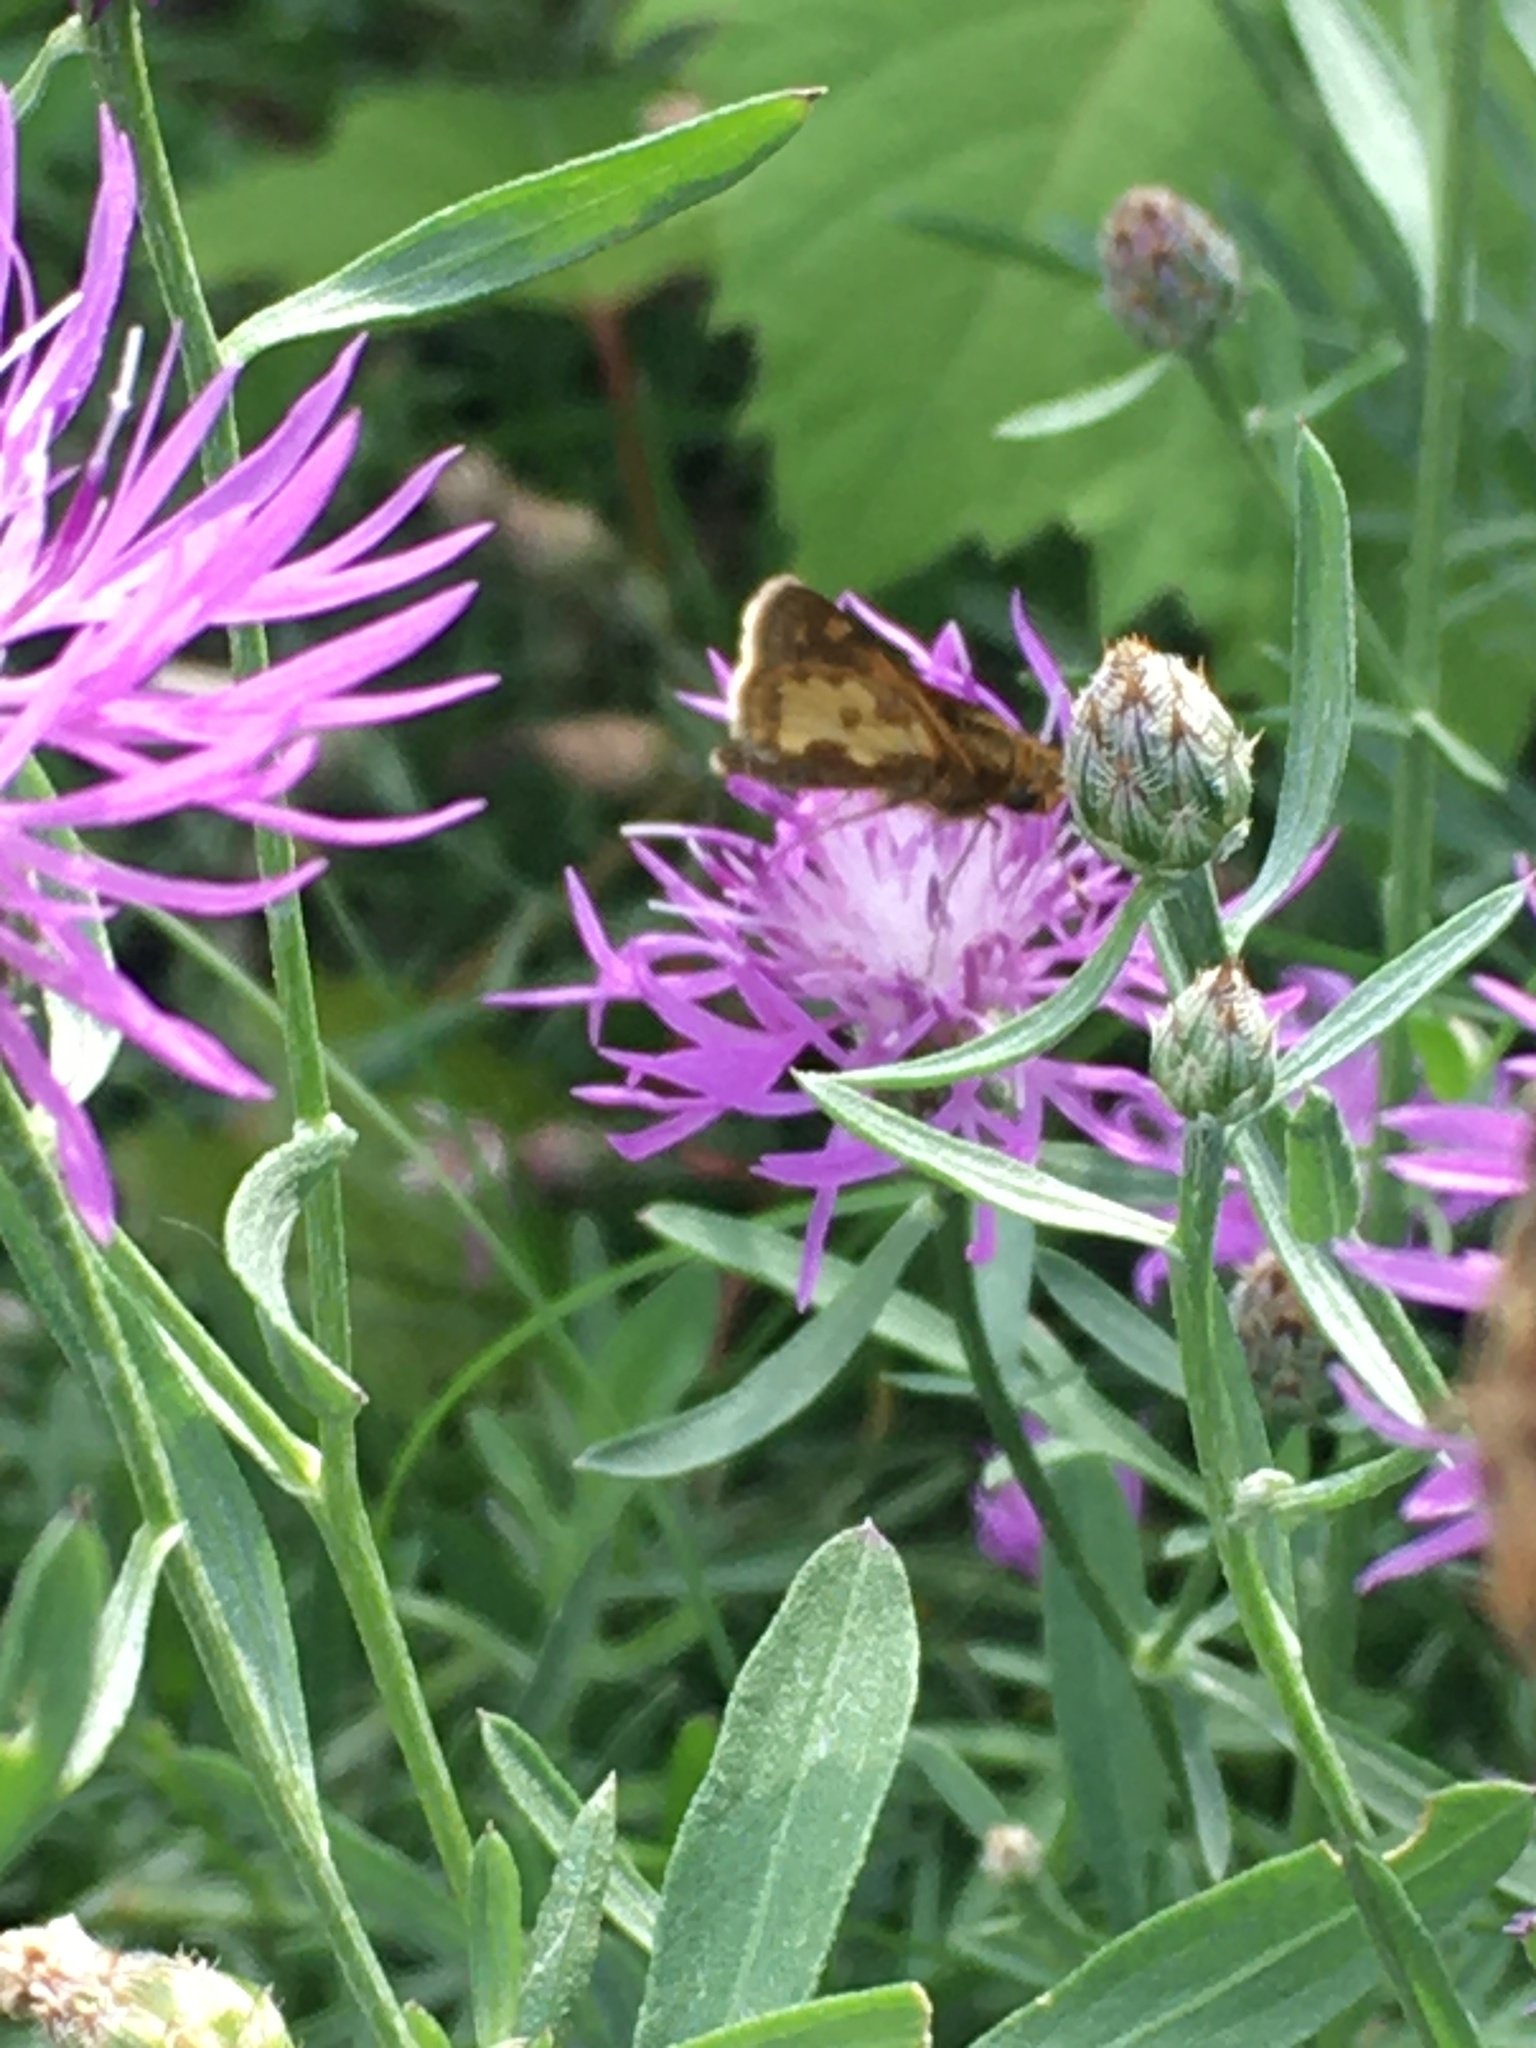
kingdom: Animalia
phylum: Arthropoda
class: Insecta
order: Lepidoptera
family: Hesperiidae
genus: Polites
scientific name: Polites coras
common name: Peck's skipper
